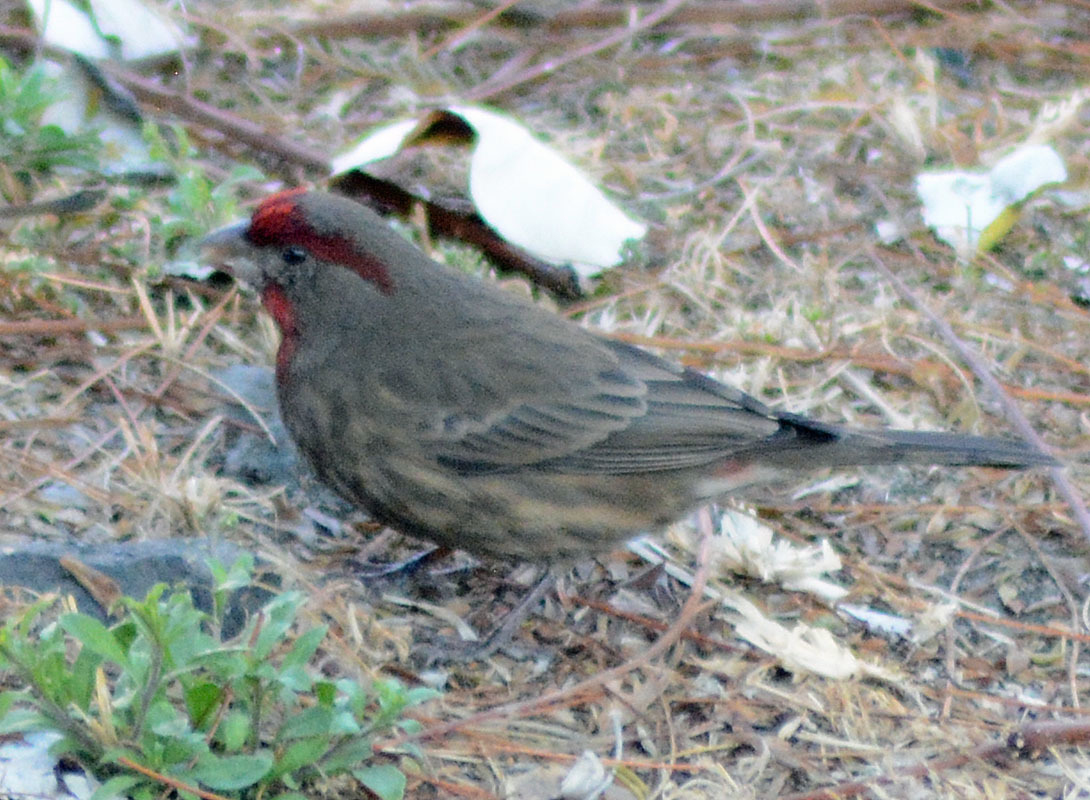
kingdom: Animalia
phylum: Chordata
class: Aves
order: Passeriformes
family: Fringillidae
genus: Haemorhous
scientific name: Haemorhous mexicanus
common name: House finch
